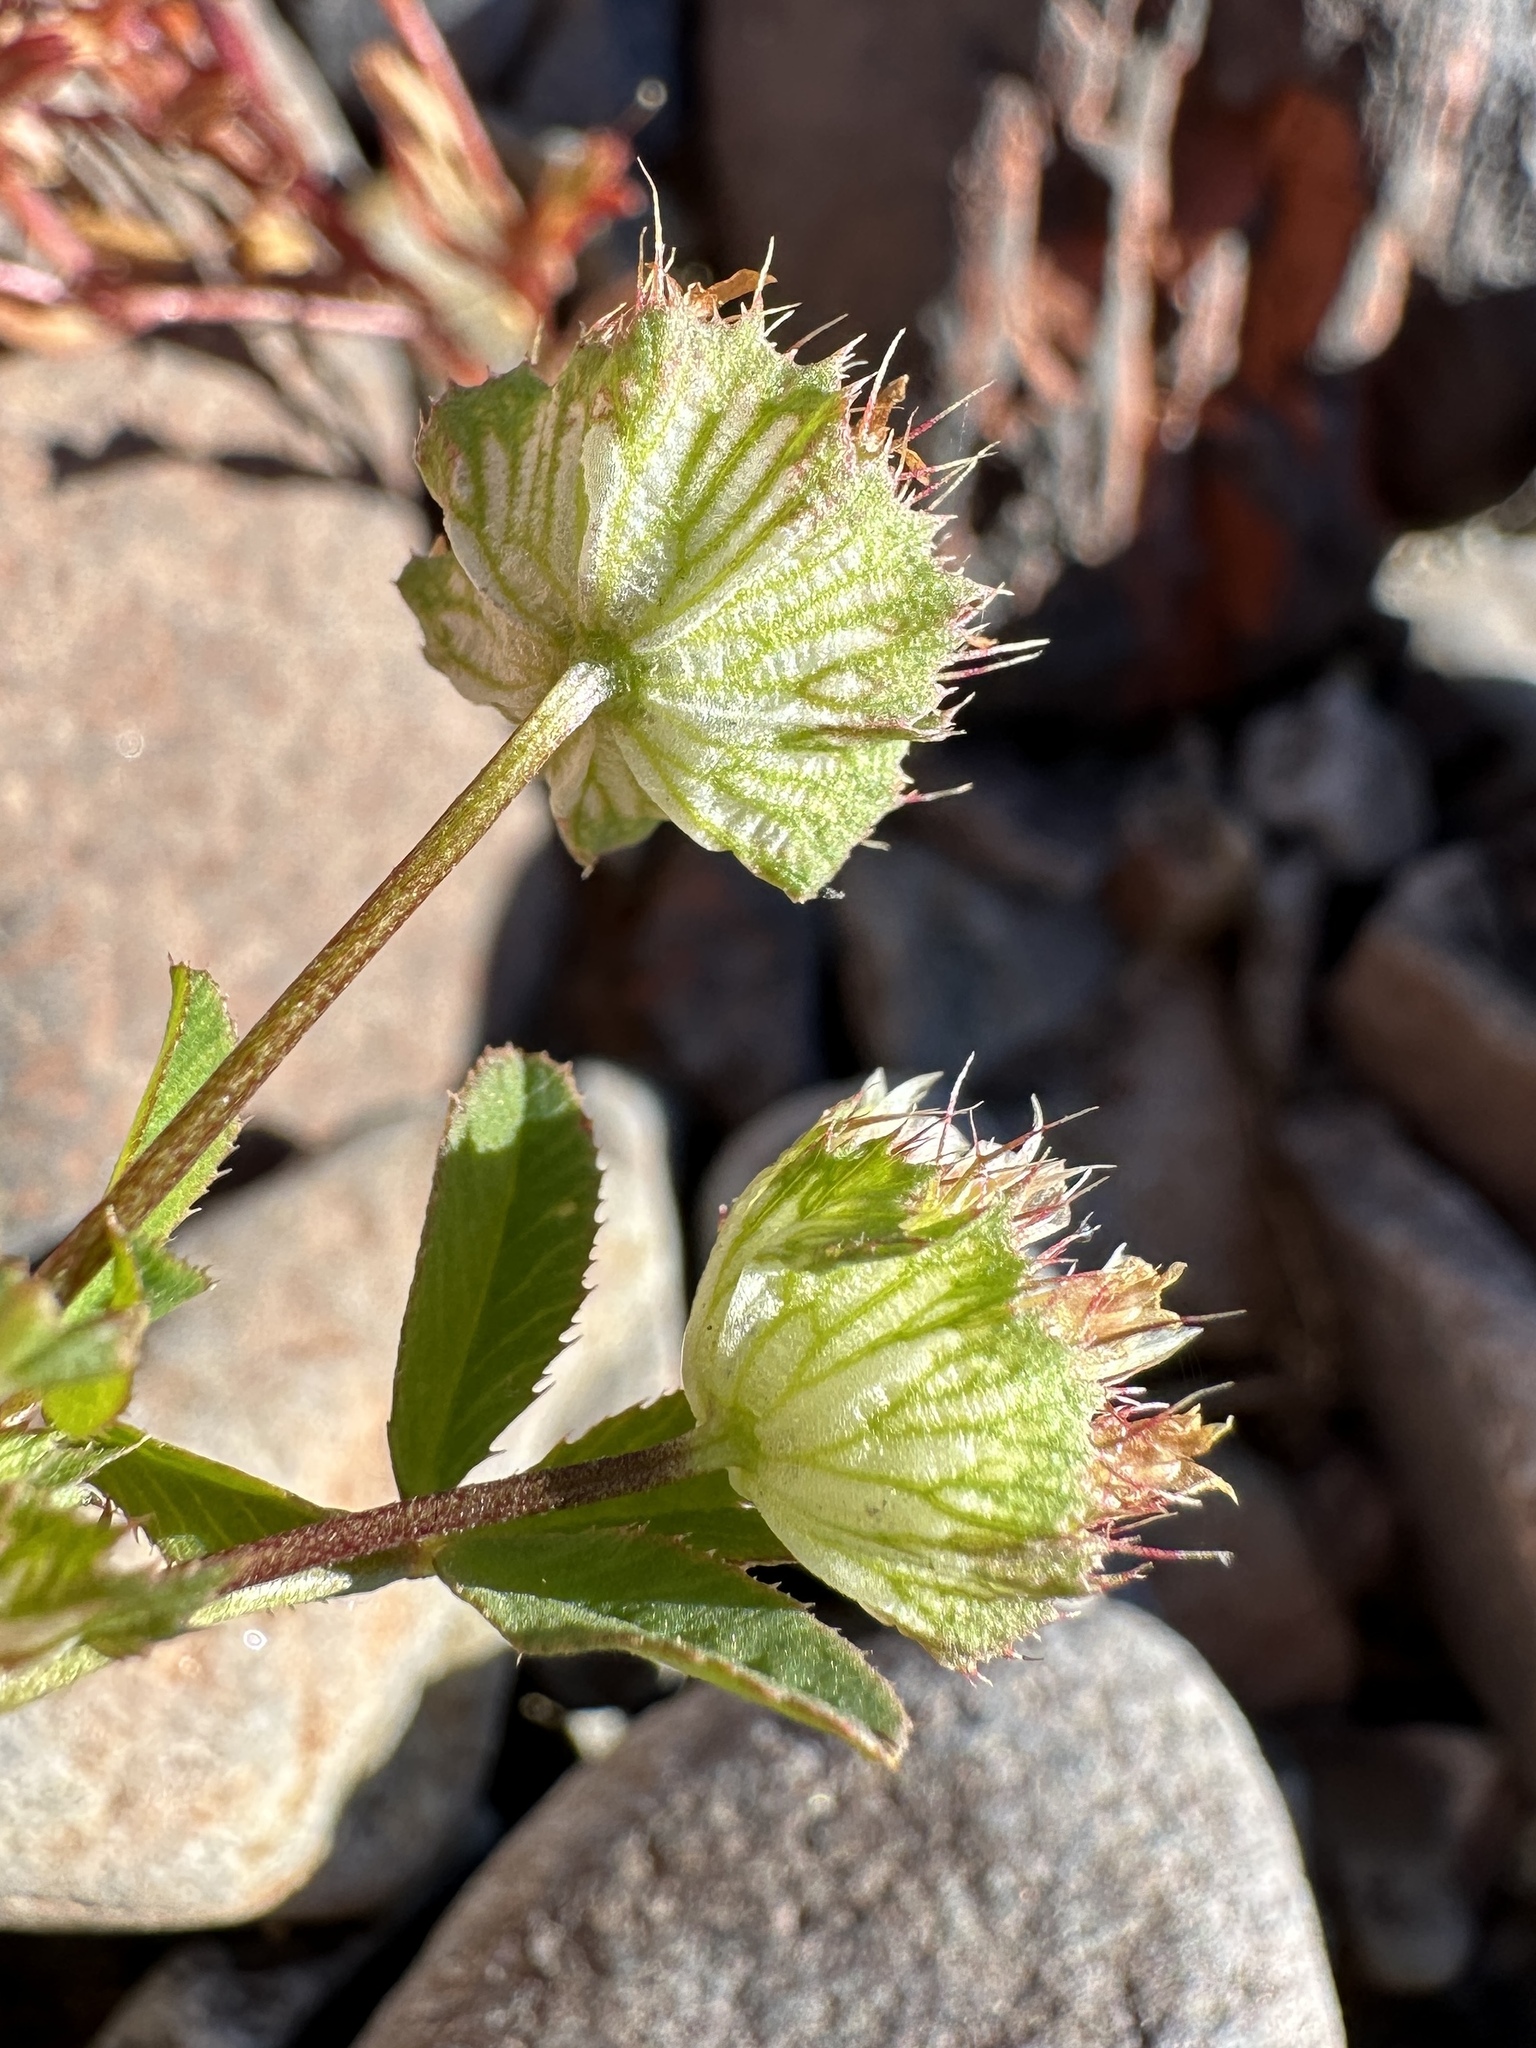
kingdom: Plantae
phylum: Tracheophyta
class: Magnoliopsida
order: Fabales
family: Fabaceae
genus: Trifolium
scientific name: Trifolium cyathiferum
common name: Bowl clover
